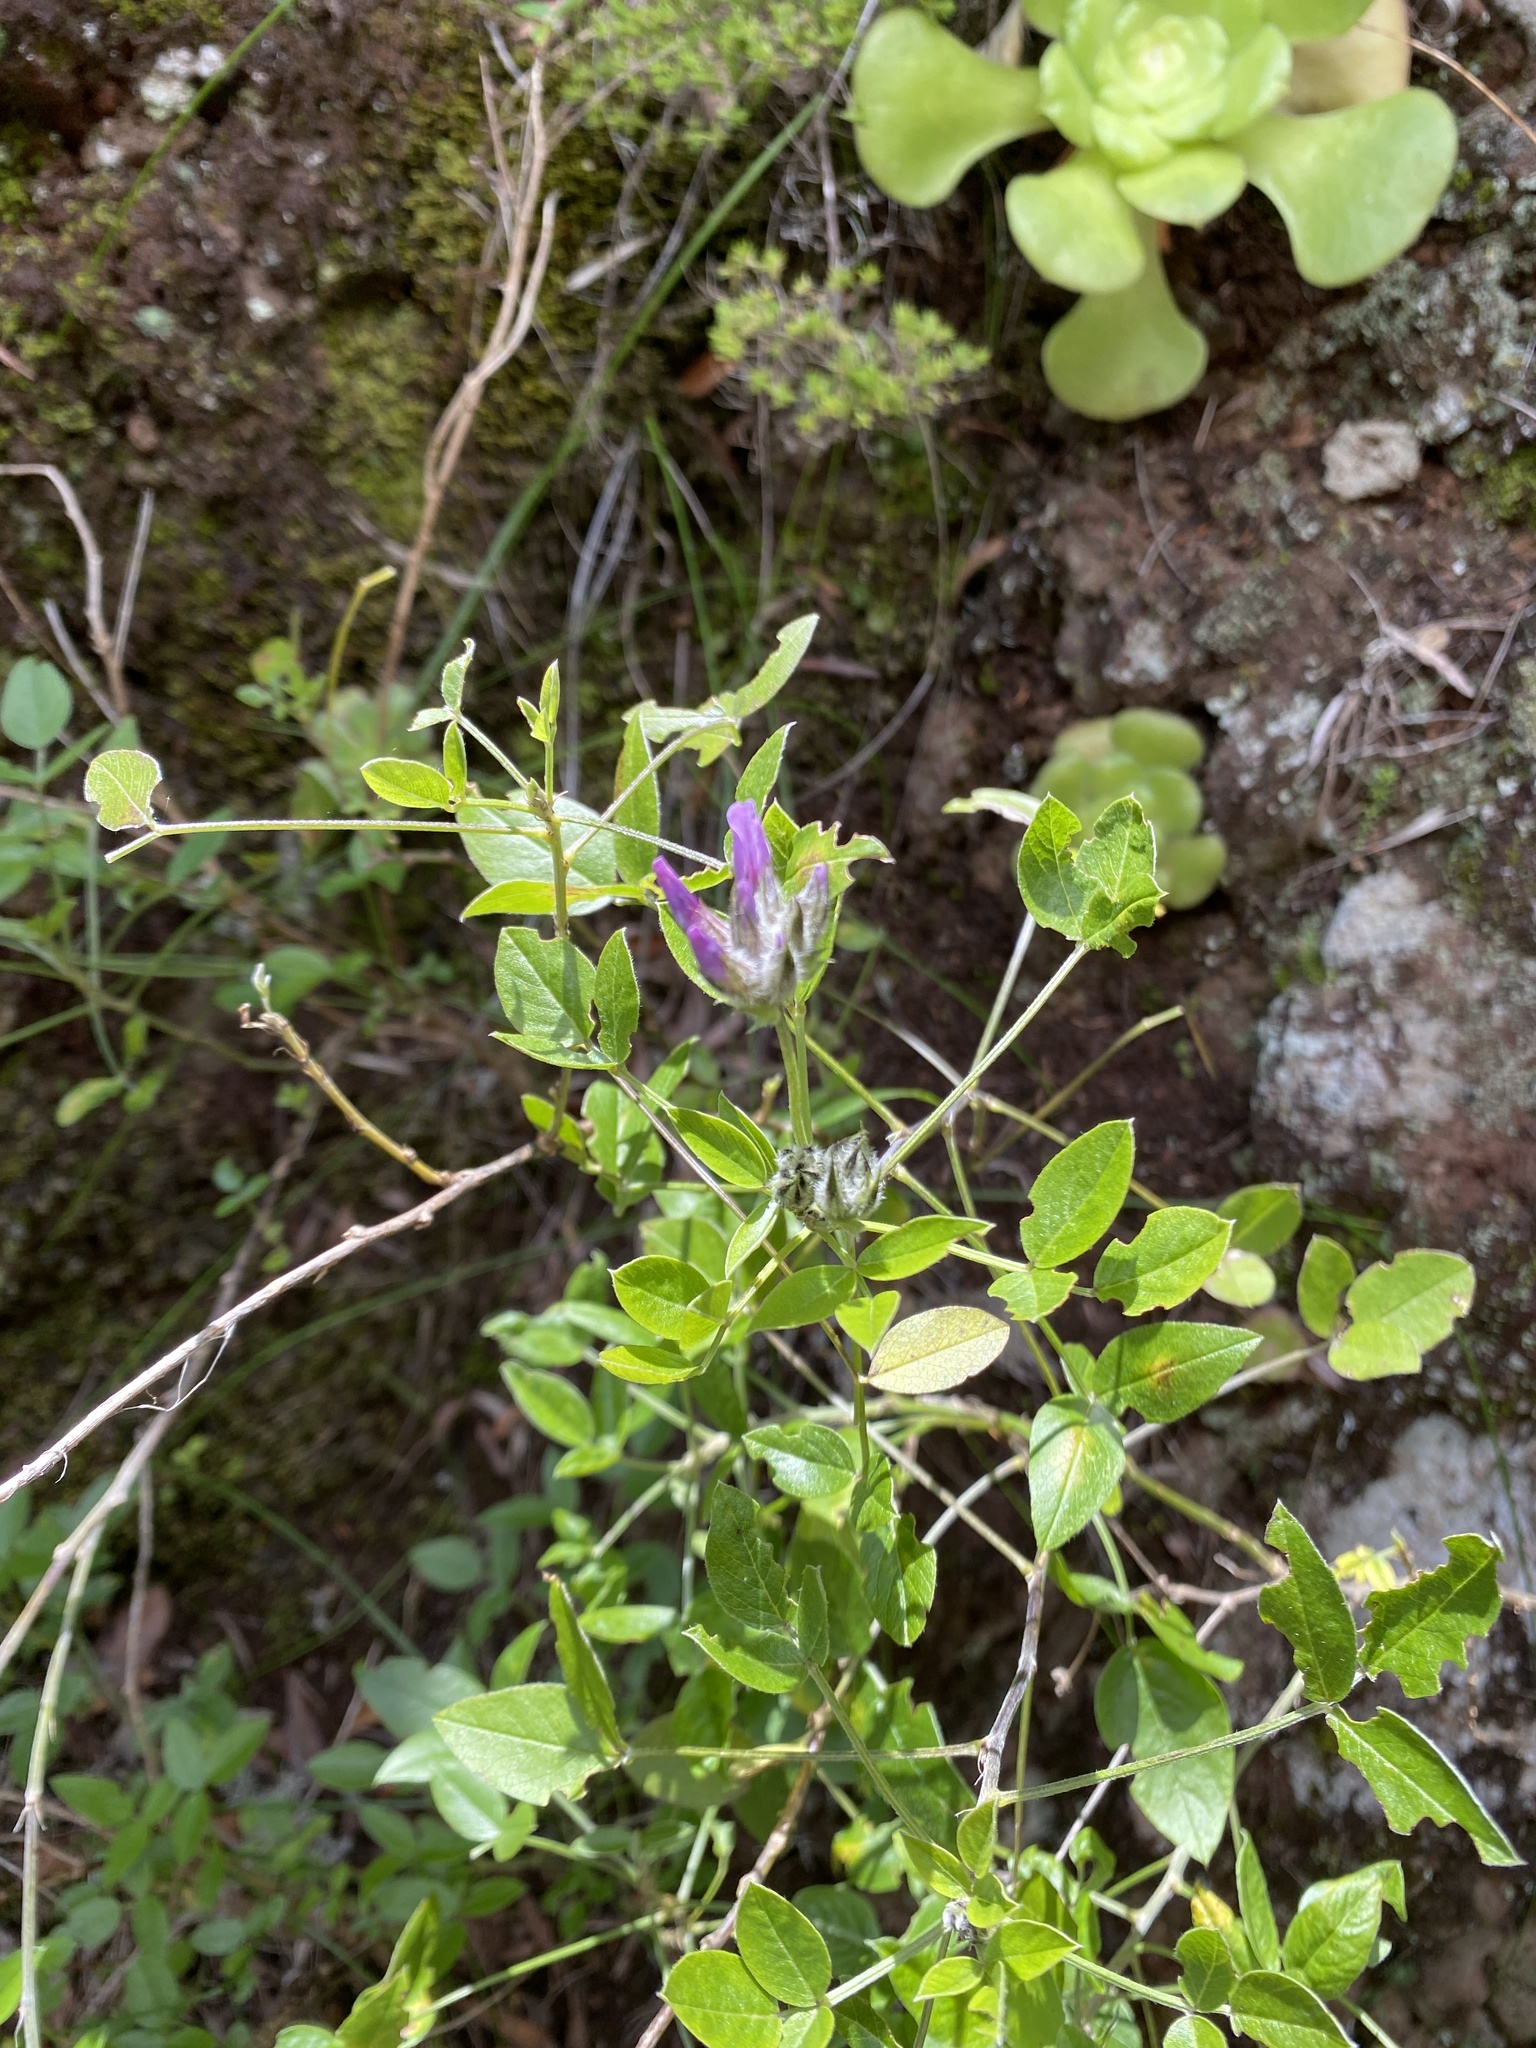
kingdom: Plantae
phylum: Tracheophyta
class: Magnoliopsida
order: Fabales
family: Fabaceae
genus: Bituminaria
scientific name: Bituminaria bituminosa
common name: Arabian pea
